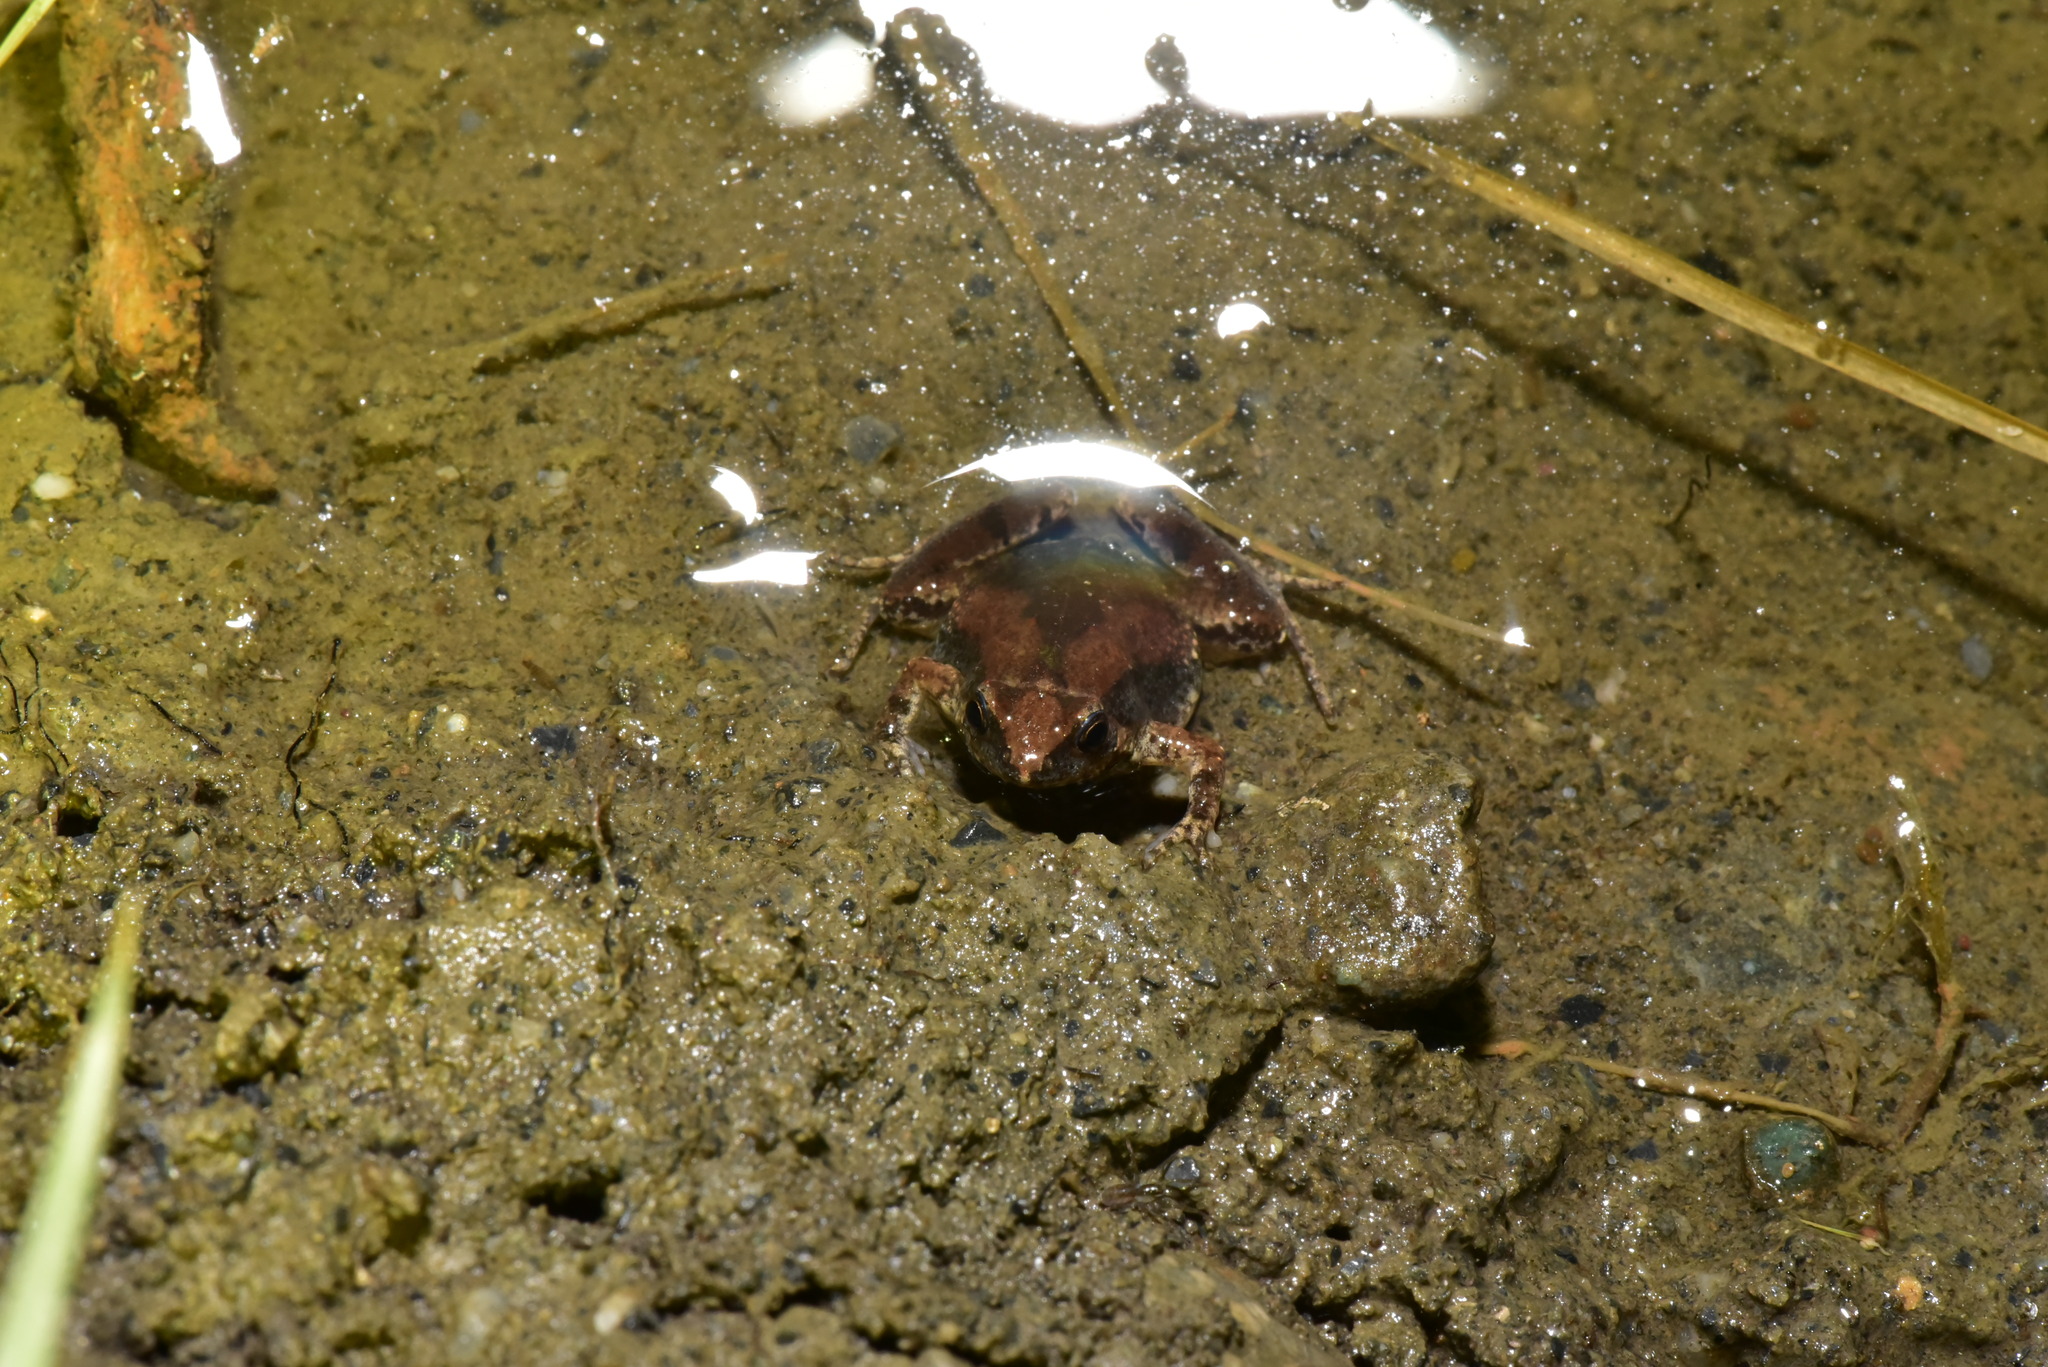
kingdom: Animalia
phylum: Chordata
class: Amphibia
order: Anura
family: Microhylidae
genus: Microhyla
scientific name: Microhyla fissipes
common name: Ornate narrow-mouthed frog
